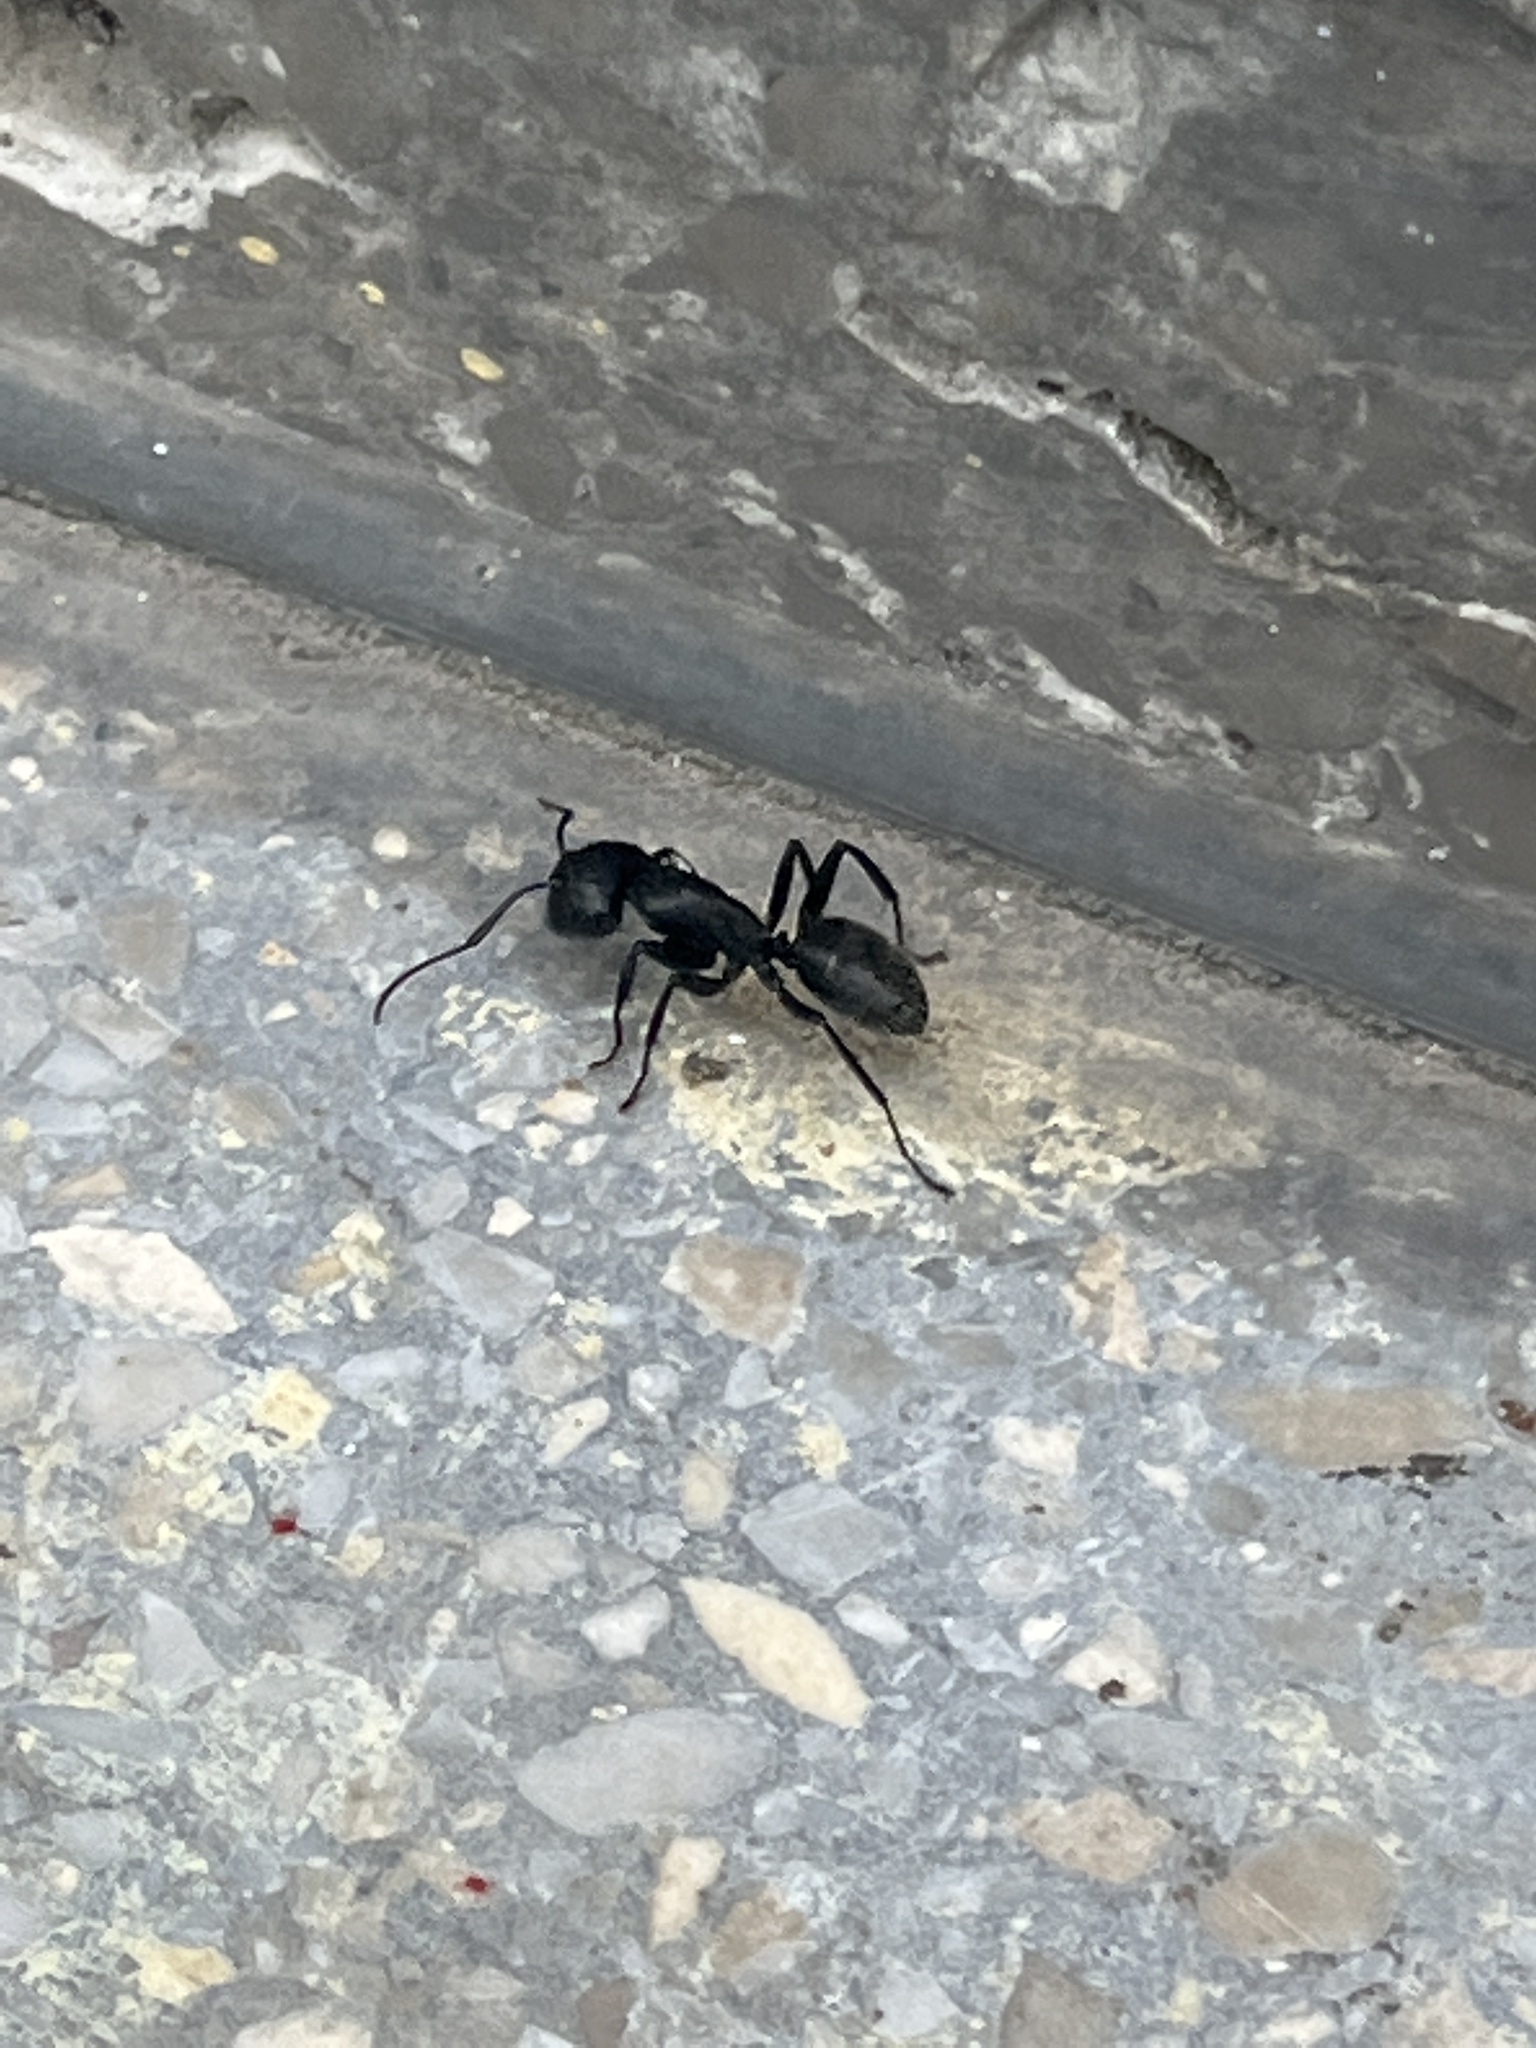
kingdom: Animalia
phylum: Arthropoda
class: Insecta
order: Hymenoptera
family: Formicidae
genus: Camponotus
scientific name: Camponotus vagus
